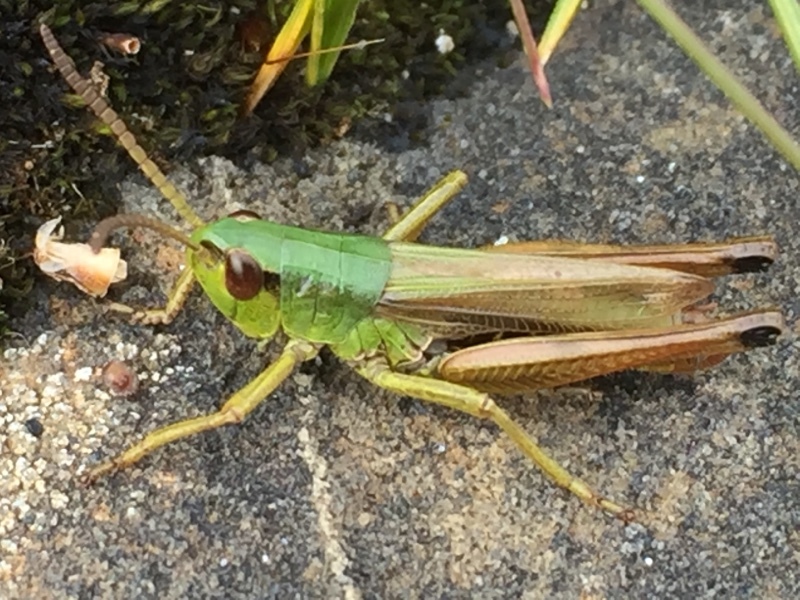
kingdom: Animalia
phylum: Arthropoda
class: Insecta
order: Orthoptera
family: Acrididae
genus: Pseudochorthippus
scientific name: Pseudochorthippus parallelus
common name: Meadow grasshopper
